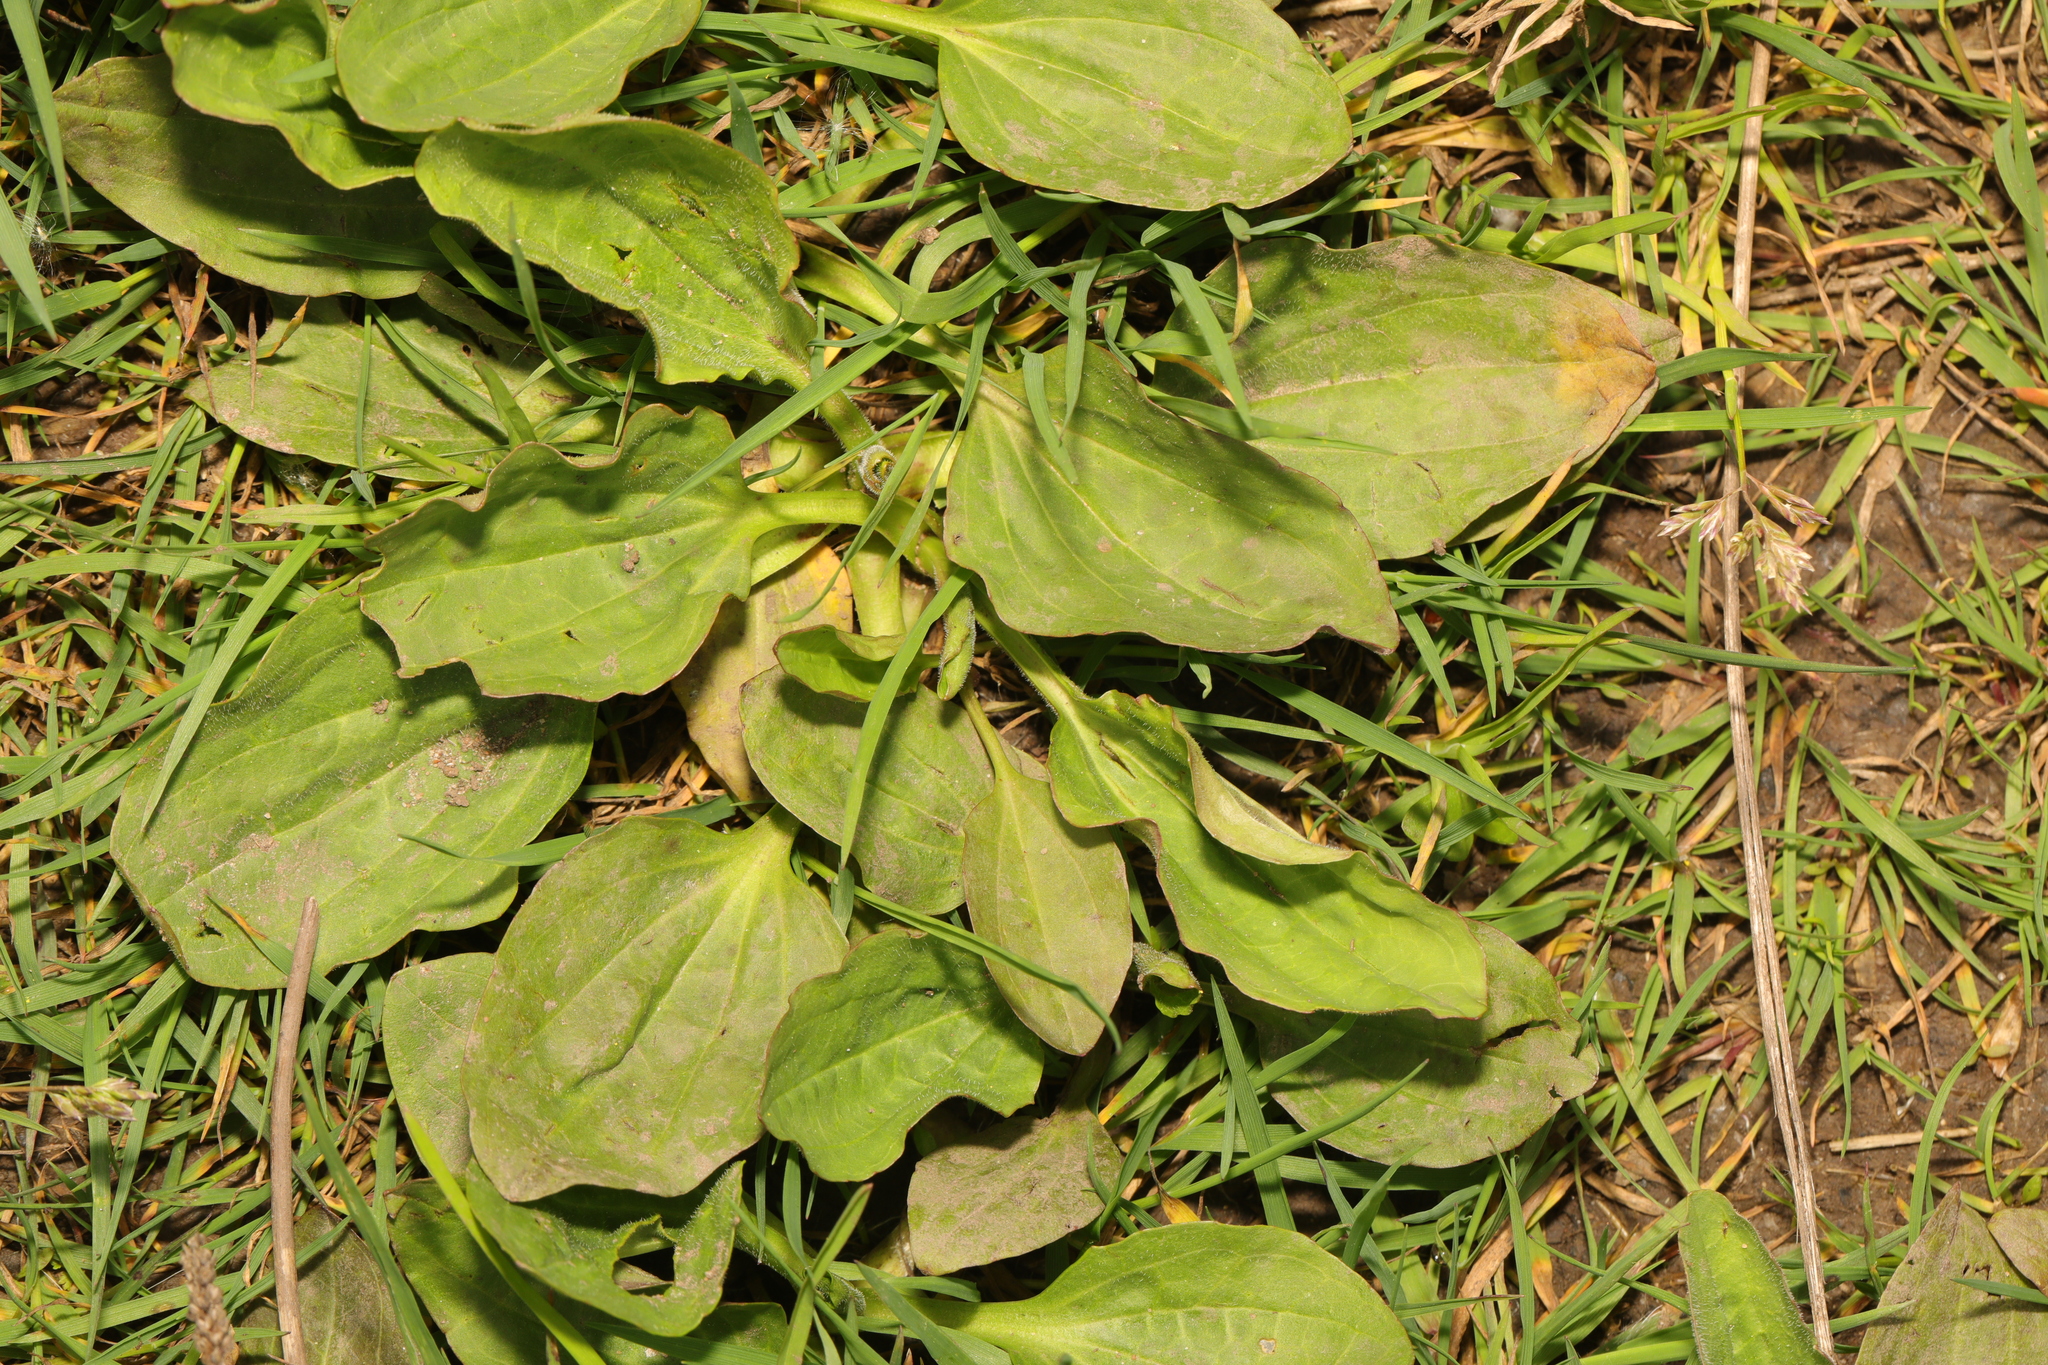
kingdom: Plantae
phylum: Tracheophyta
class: Magnoliopsida
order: Lamiales
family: Plantaginaceae
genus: Plantago
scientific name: Plantago major
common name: Common plantain
